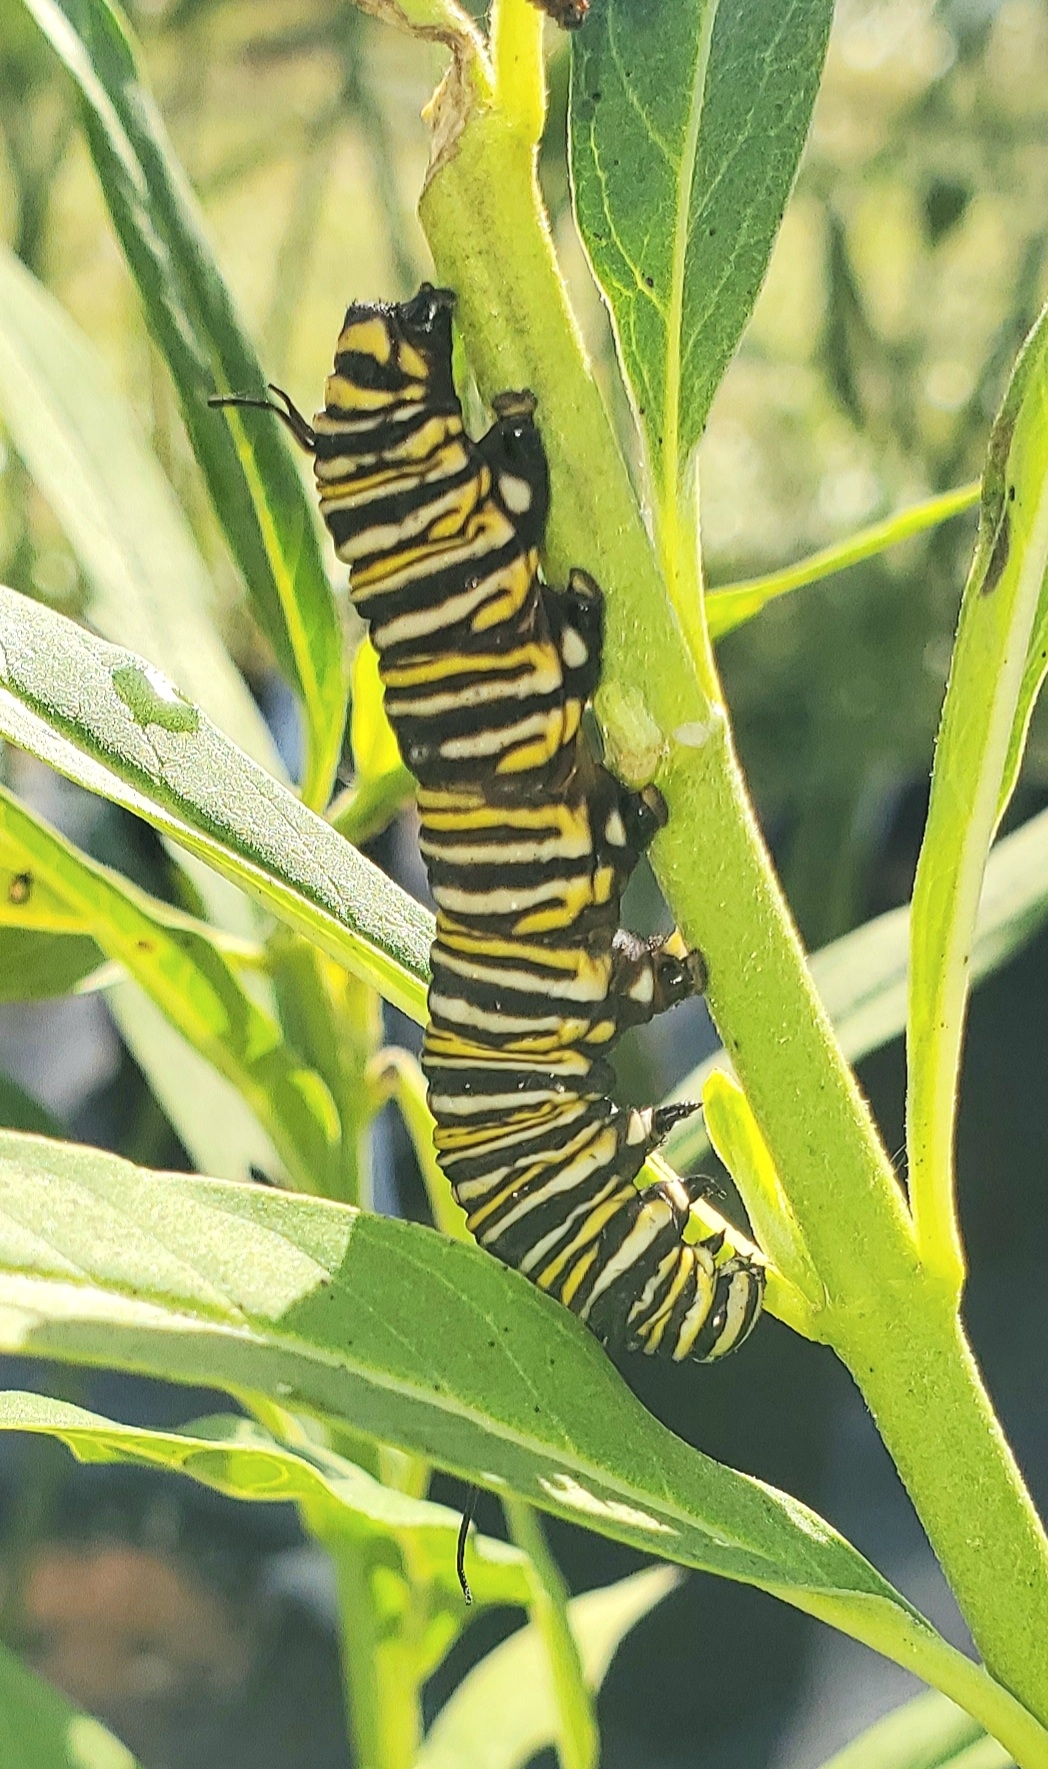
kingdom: Animalia
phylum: Arthropoda
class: Insecta
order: Lepidoptera
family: Nymphalidae
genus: Danaus
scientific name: Danaus plexippus
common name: Monarch
